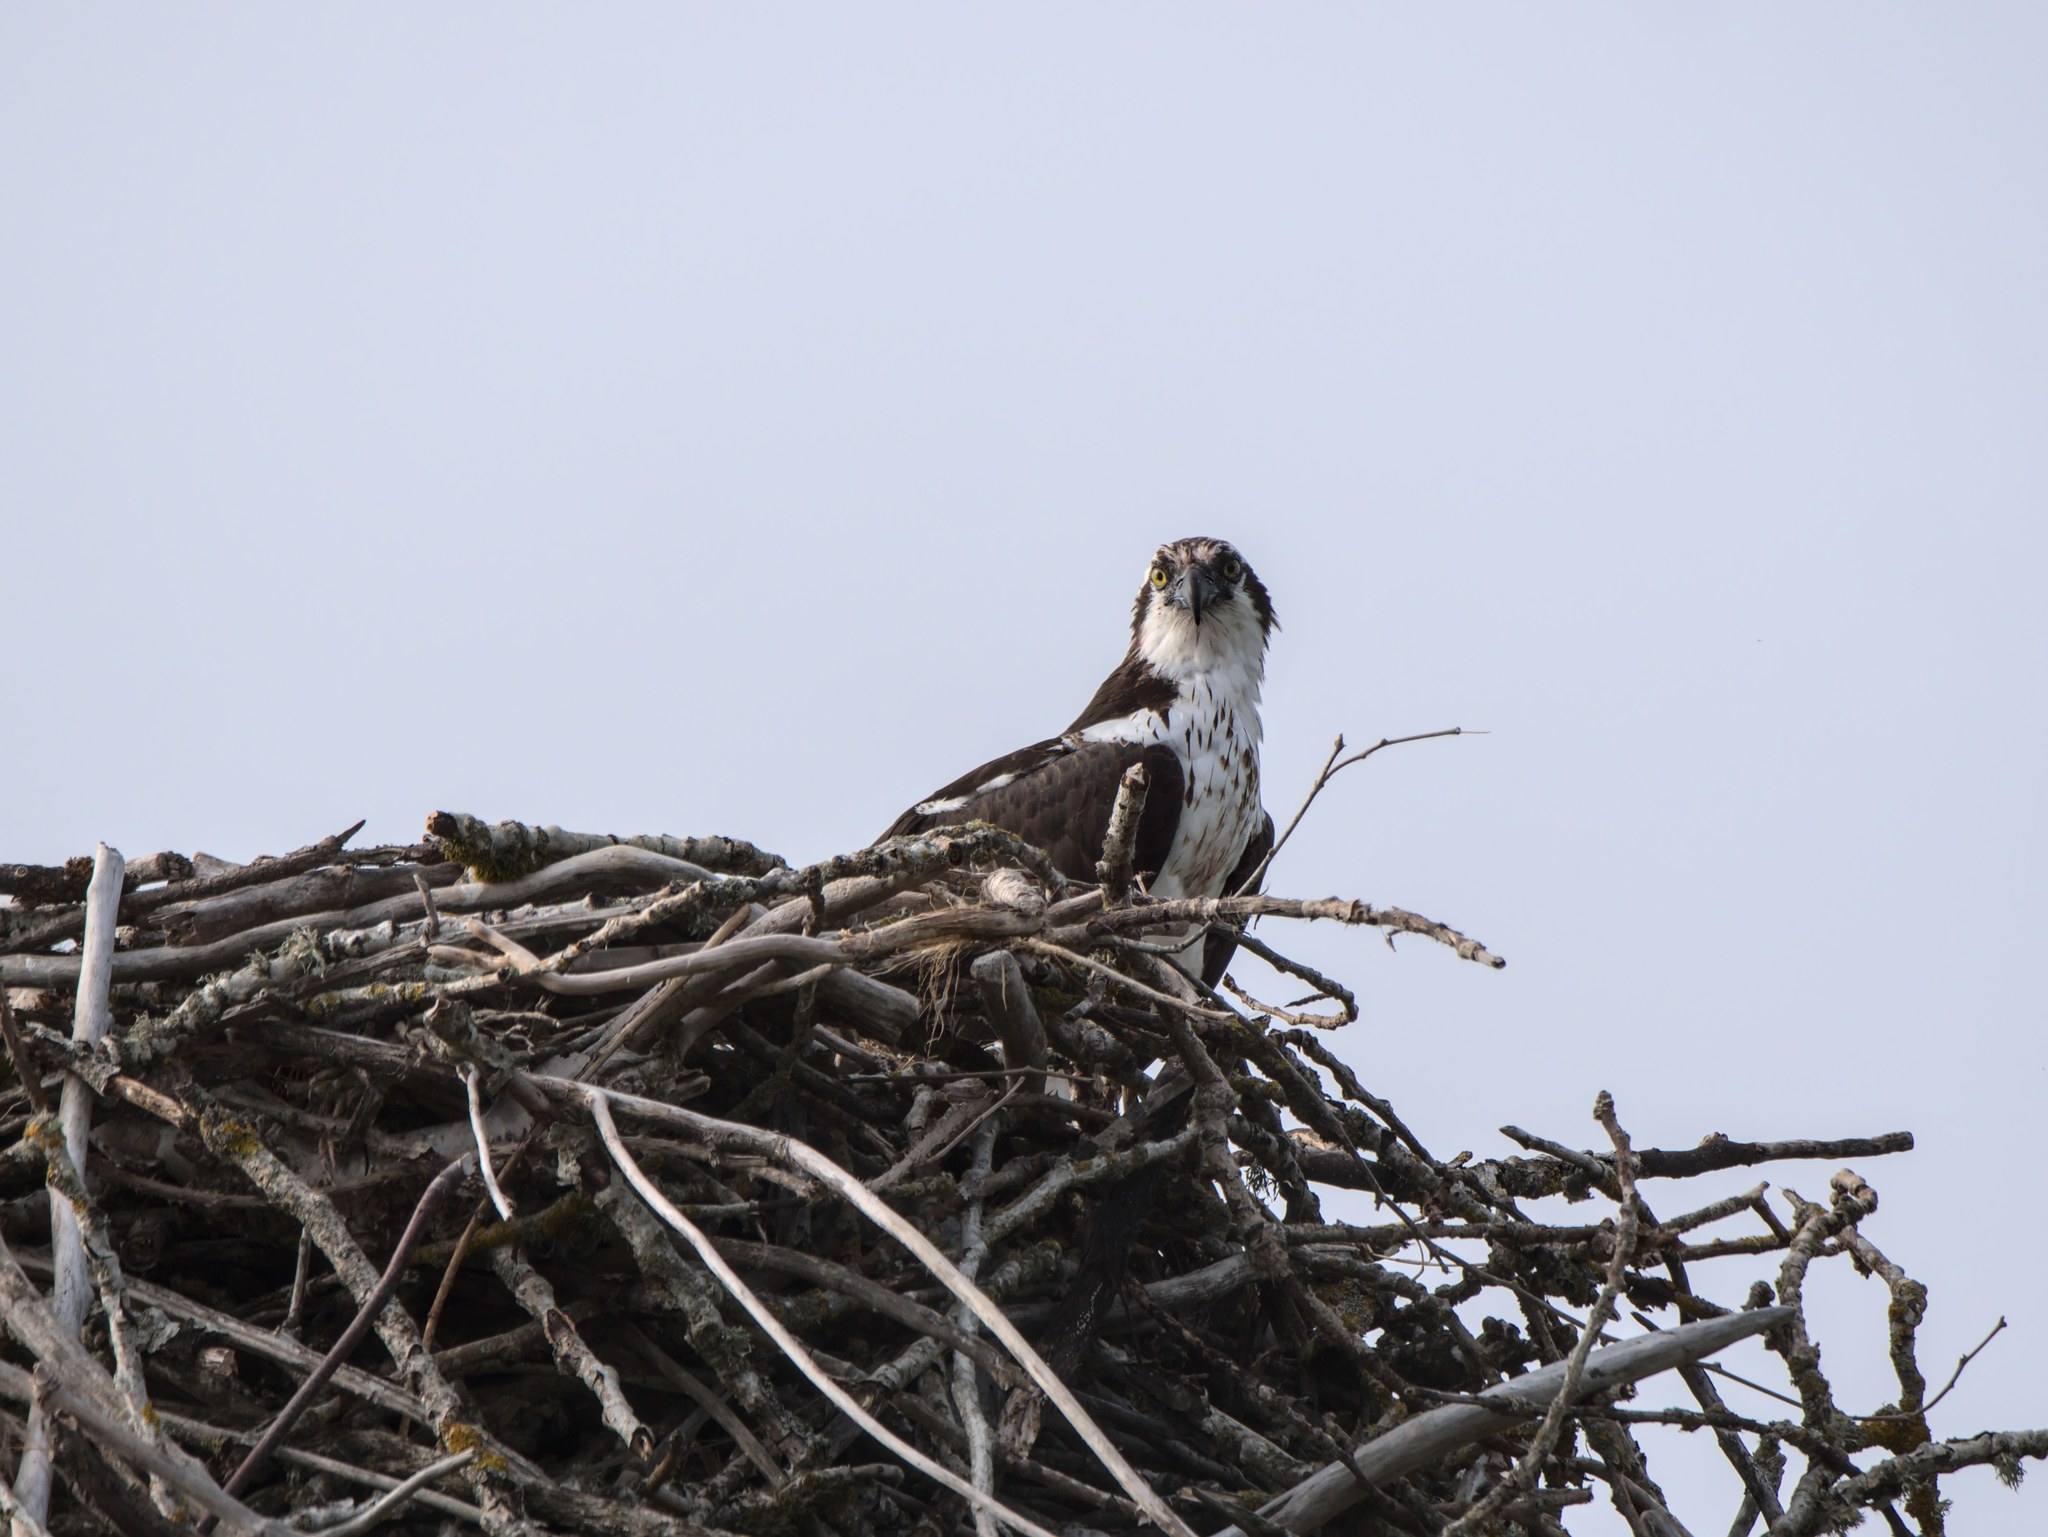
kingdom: Animalia
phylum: Chordata
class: Aves
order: Accipitriformes
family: Pandionidae
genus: Pandion
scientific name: Pandion haliaetus
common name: Osprey
